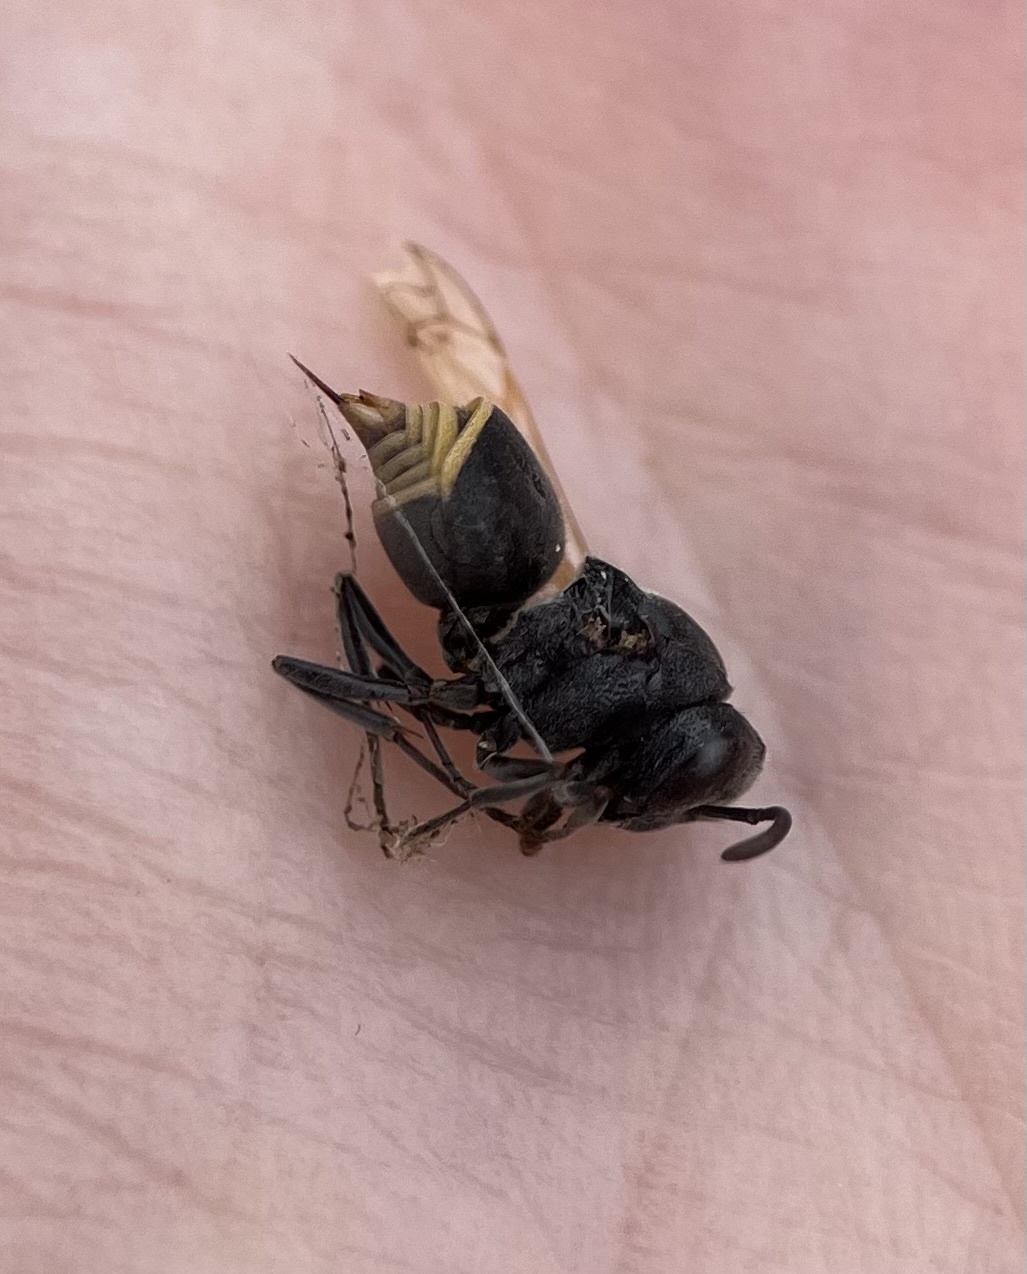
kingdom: Animalia
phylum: Arthropoda
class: Insecta
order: Hymenoptera
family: Vespidae
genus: Brachygastra
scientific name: Brachygastra mellifica
